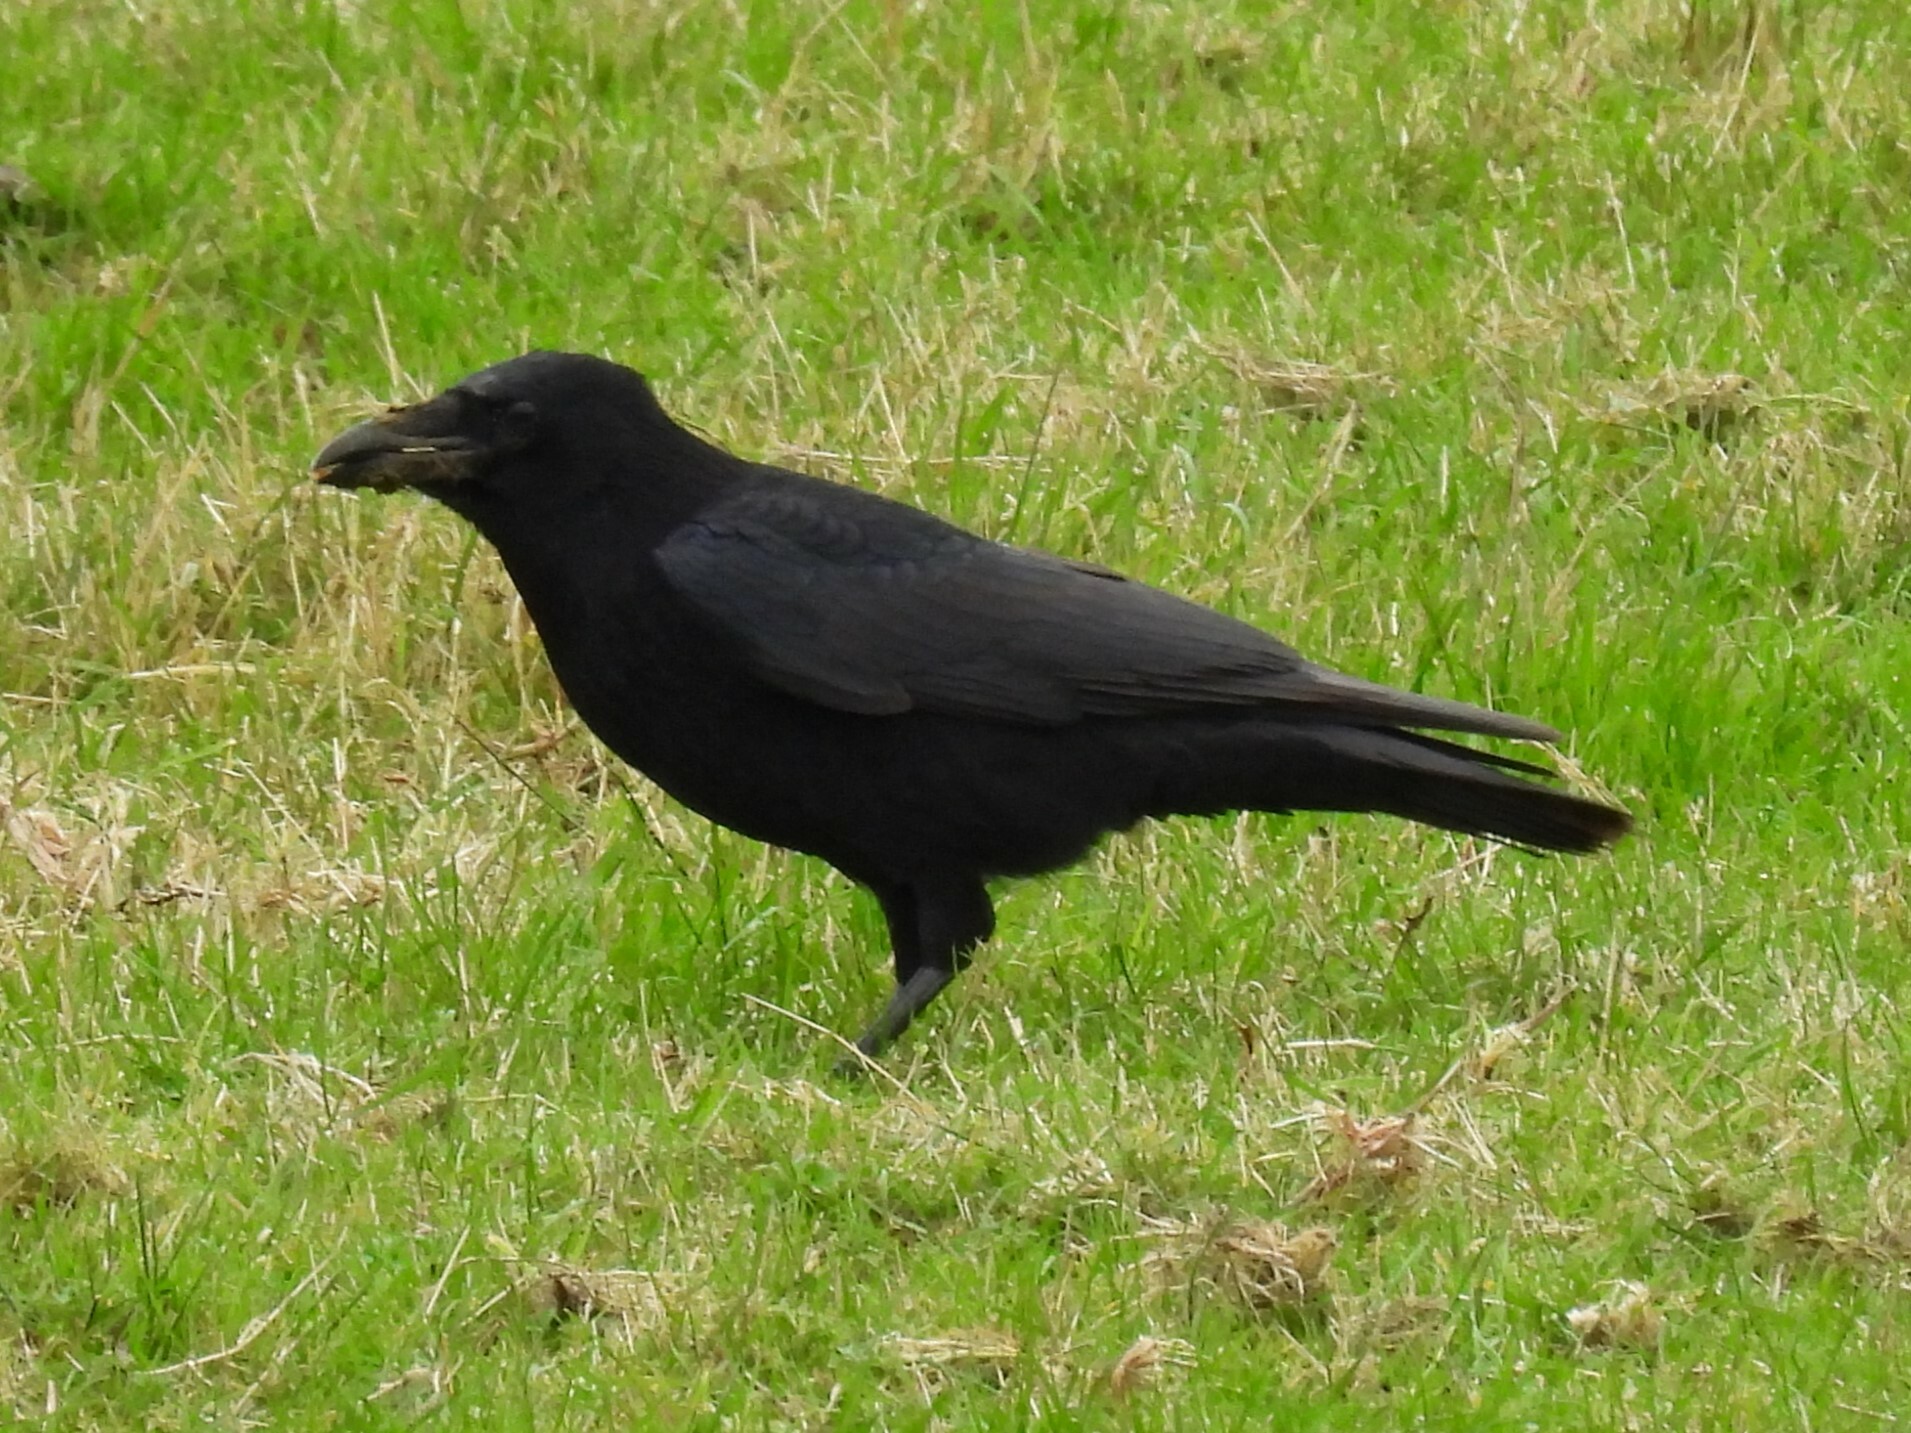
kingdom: Animalia
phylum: Chordata
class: Aves
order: Passeriformes
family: Corvidae
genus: Corvus
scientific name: Corvus corone
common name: Carrion crow
